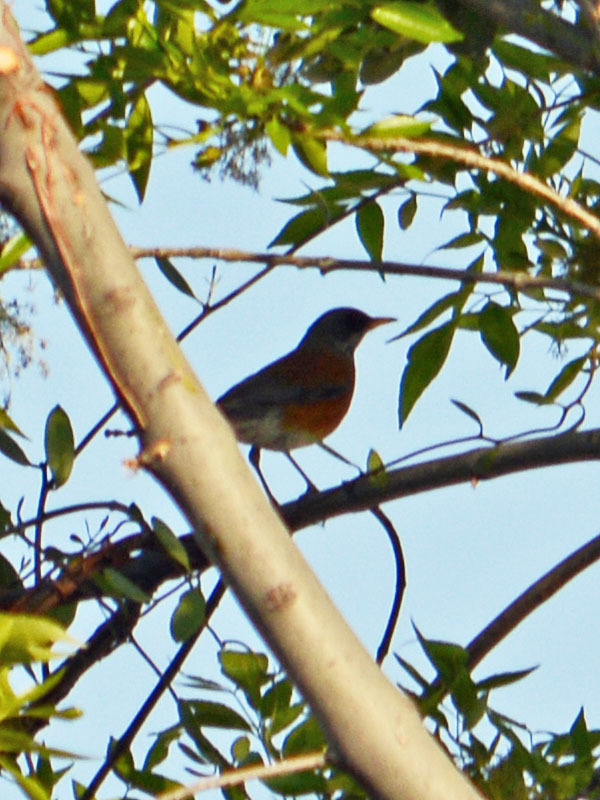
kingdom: Animalia
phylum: Chordata
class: Aves
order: Passeriformes
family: Turdidae
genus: Turdus
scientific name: Turdus rufopalliatus
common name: Rufous-backed robin
